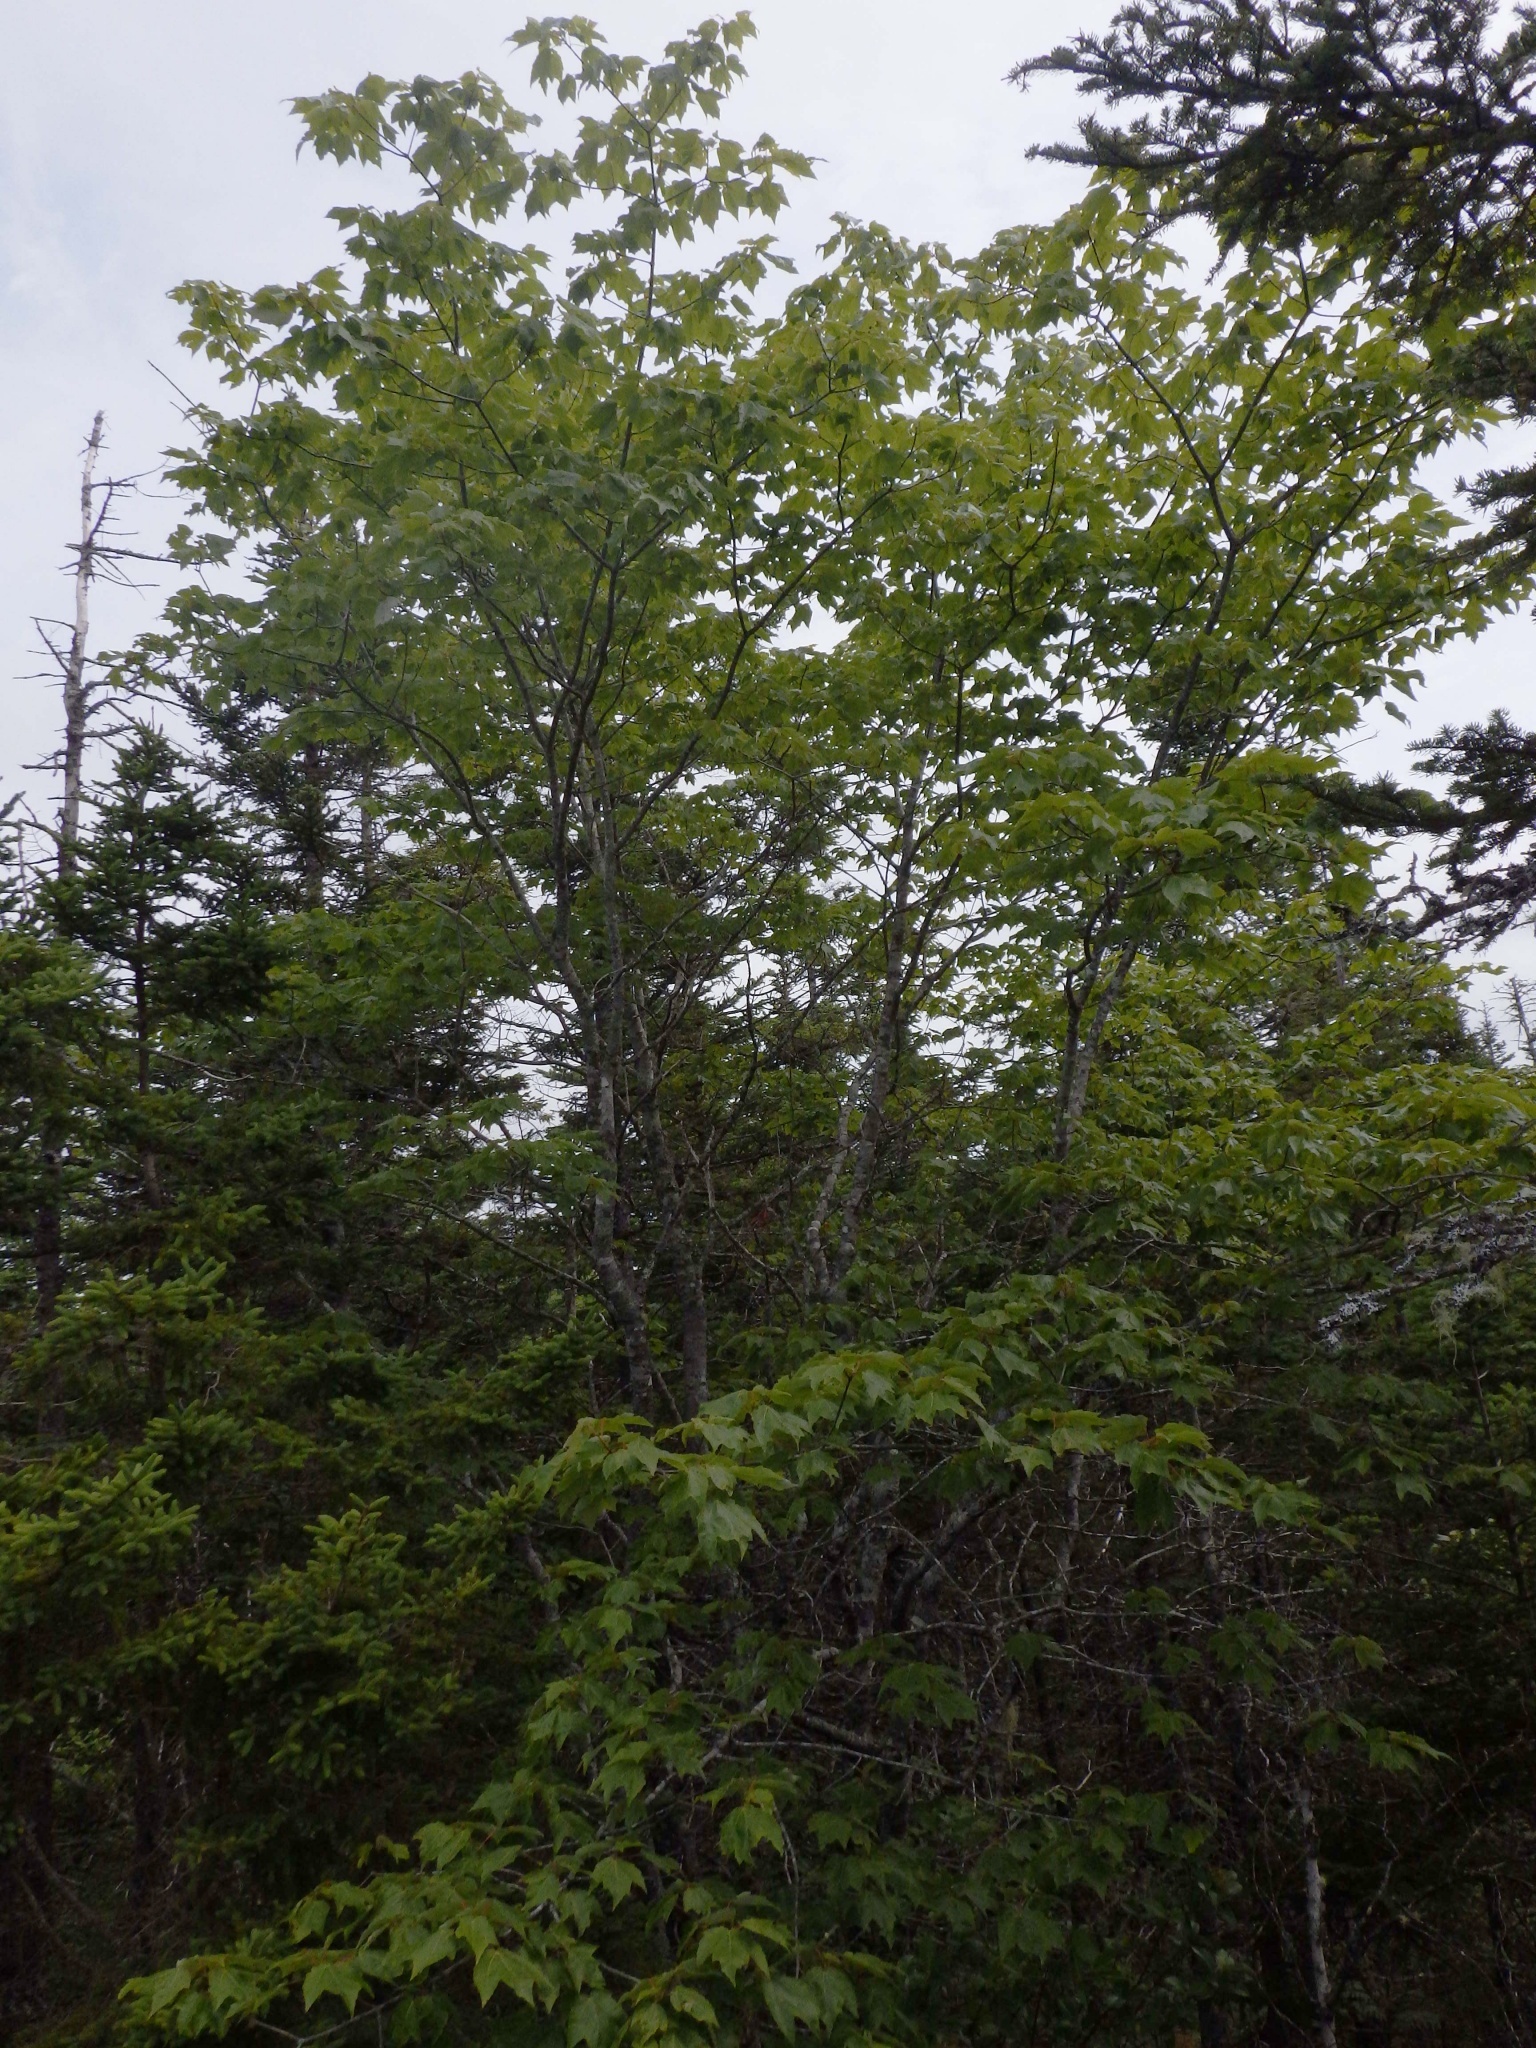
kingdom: Plantae
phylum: Tracheophyta
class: Magnoliopsida
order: Sapindales
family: Sapindaceae
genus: Acer
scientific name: Acer rubrum
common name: Red maple
